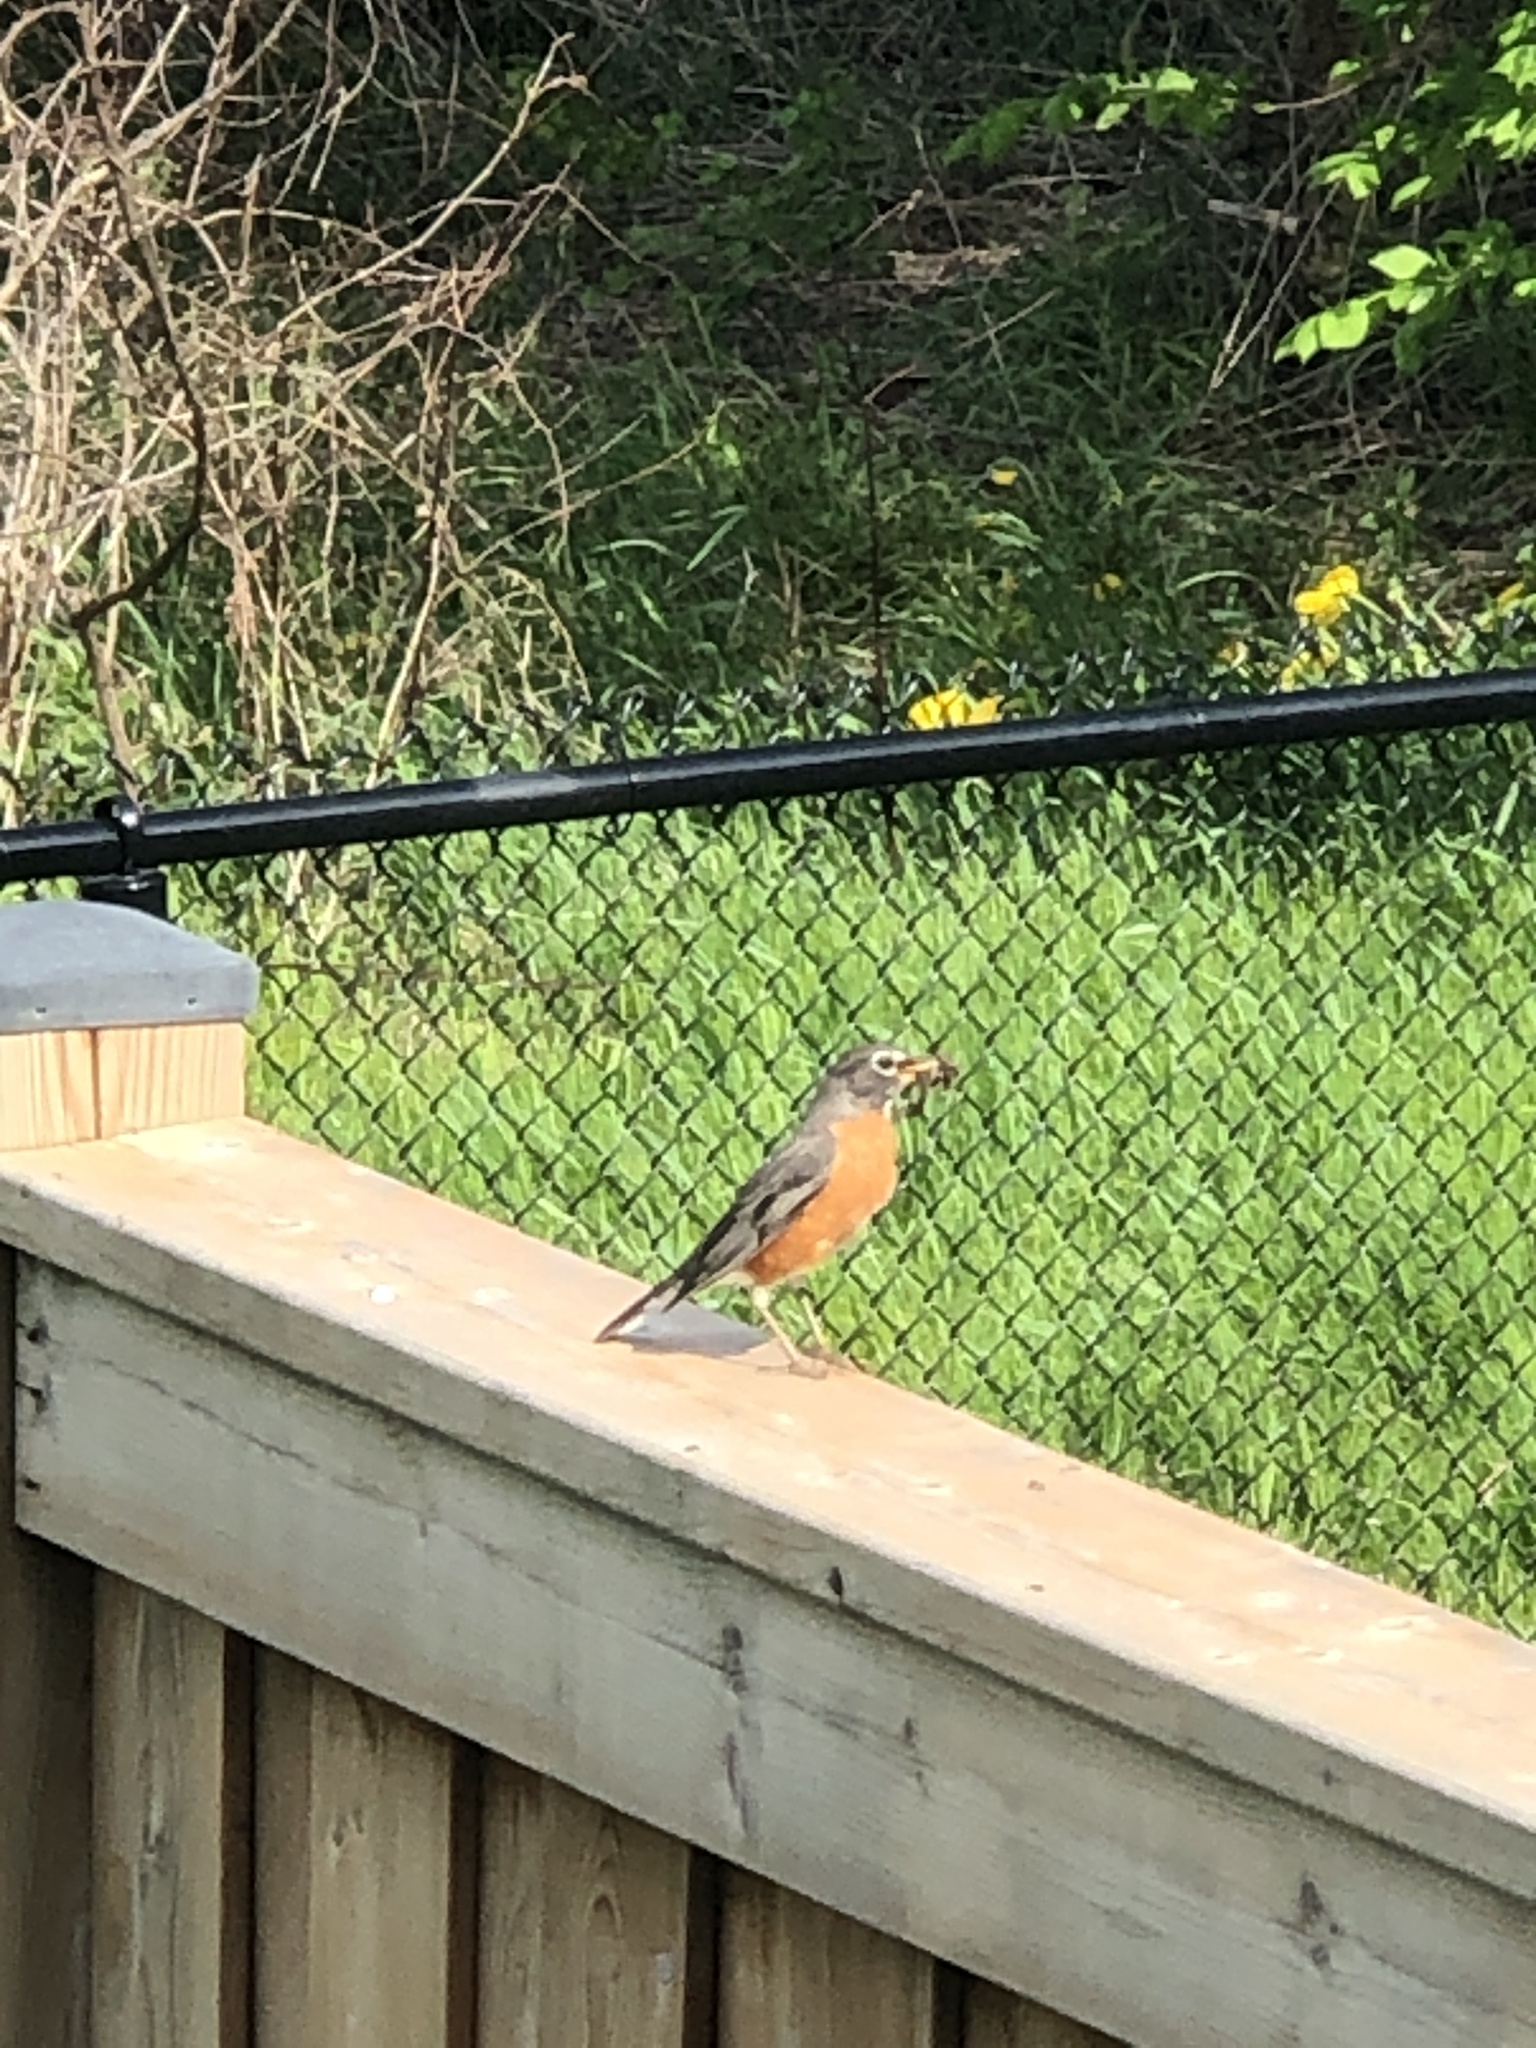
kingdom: Animalia
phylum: Chordata
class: Aves
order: Passeriformes
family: Turdidae
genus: Turdus
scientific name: Turdus migratorius
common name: American robin
